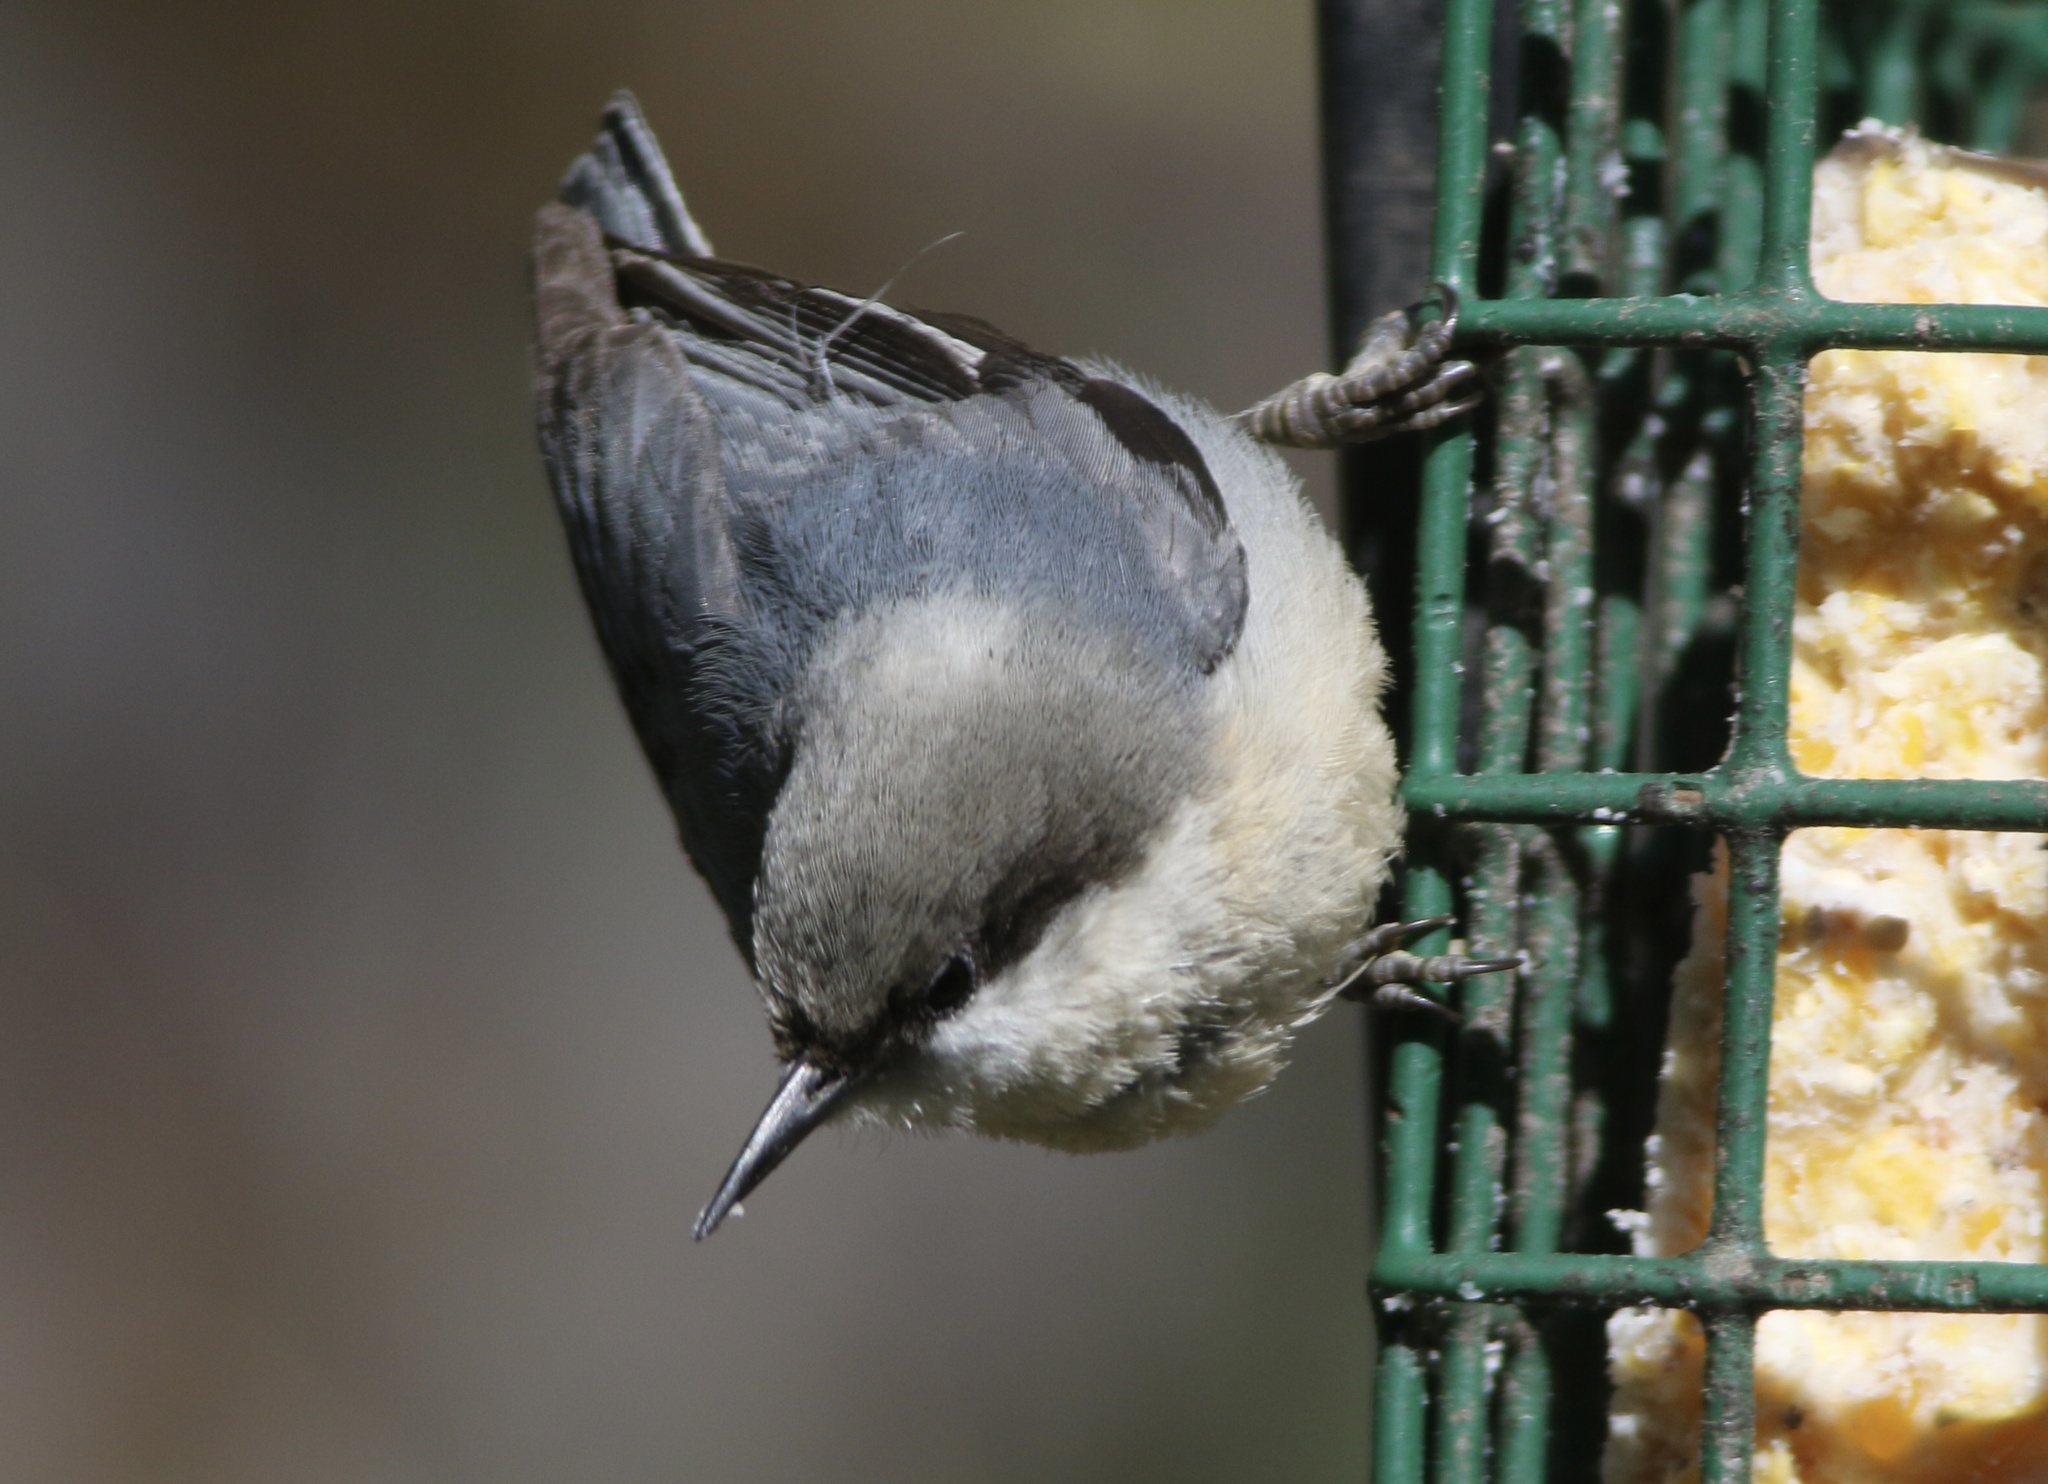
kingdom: Animalia
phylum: Chordata
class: Aves
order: Passeriformes
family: Sittidae
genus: Sitta
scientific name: Sitta pygmaea
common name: Pygmy nuthatch
